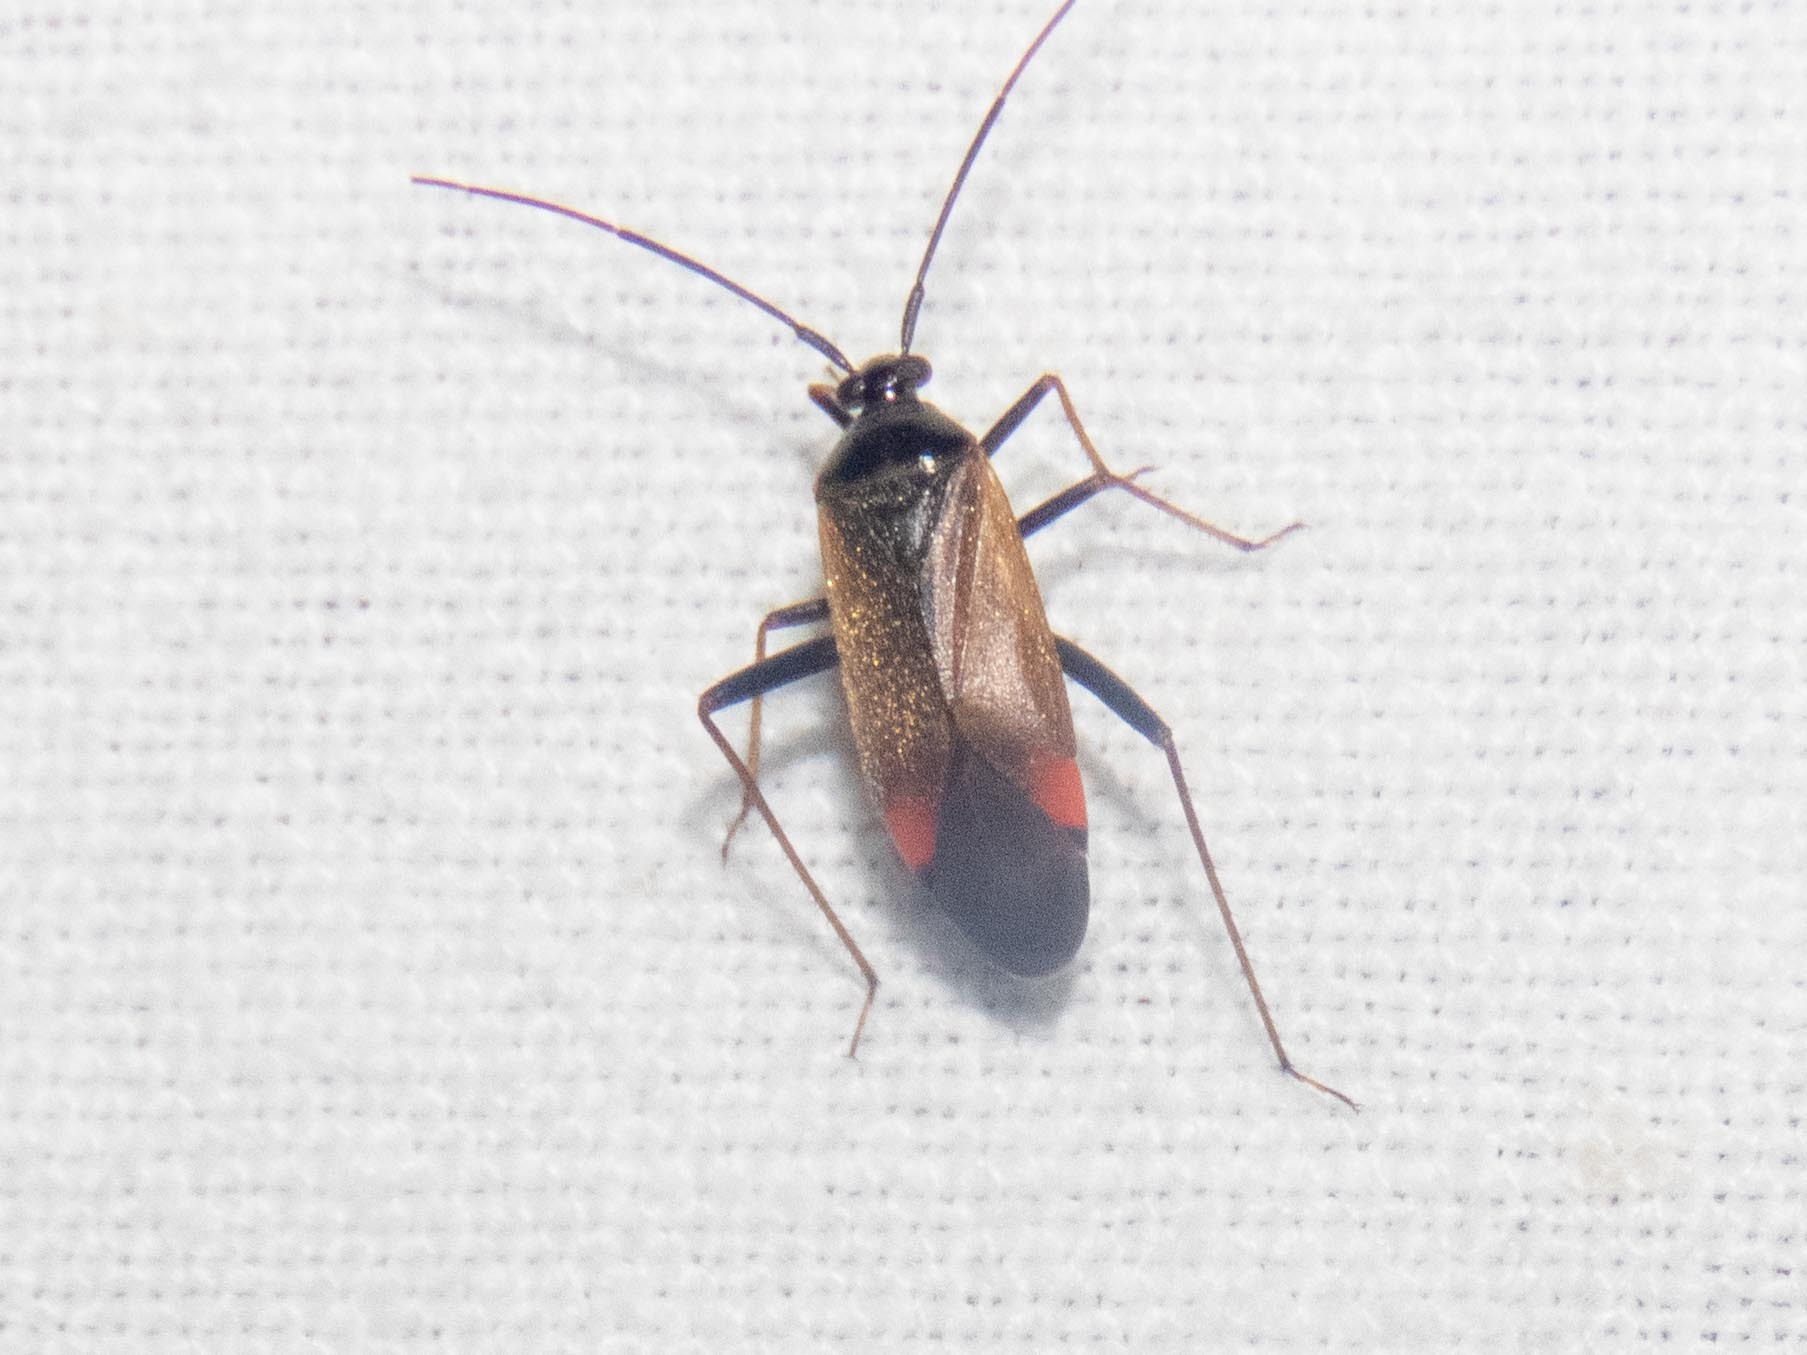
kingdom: Animalia
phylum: Arthropoda
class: Insecta
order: Hemiptera
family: Miridae
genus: Adelphocoris
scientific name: Adelphocoris seticornis
